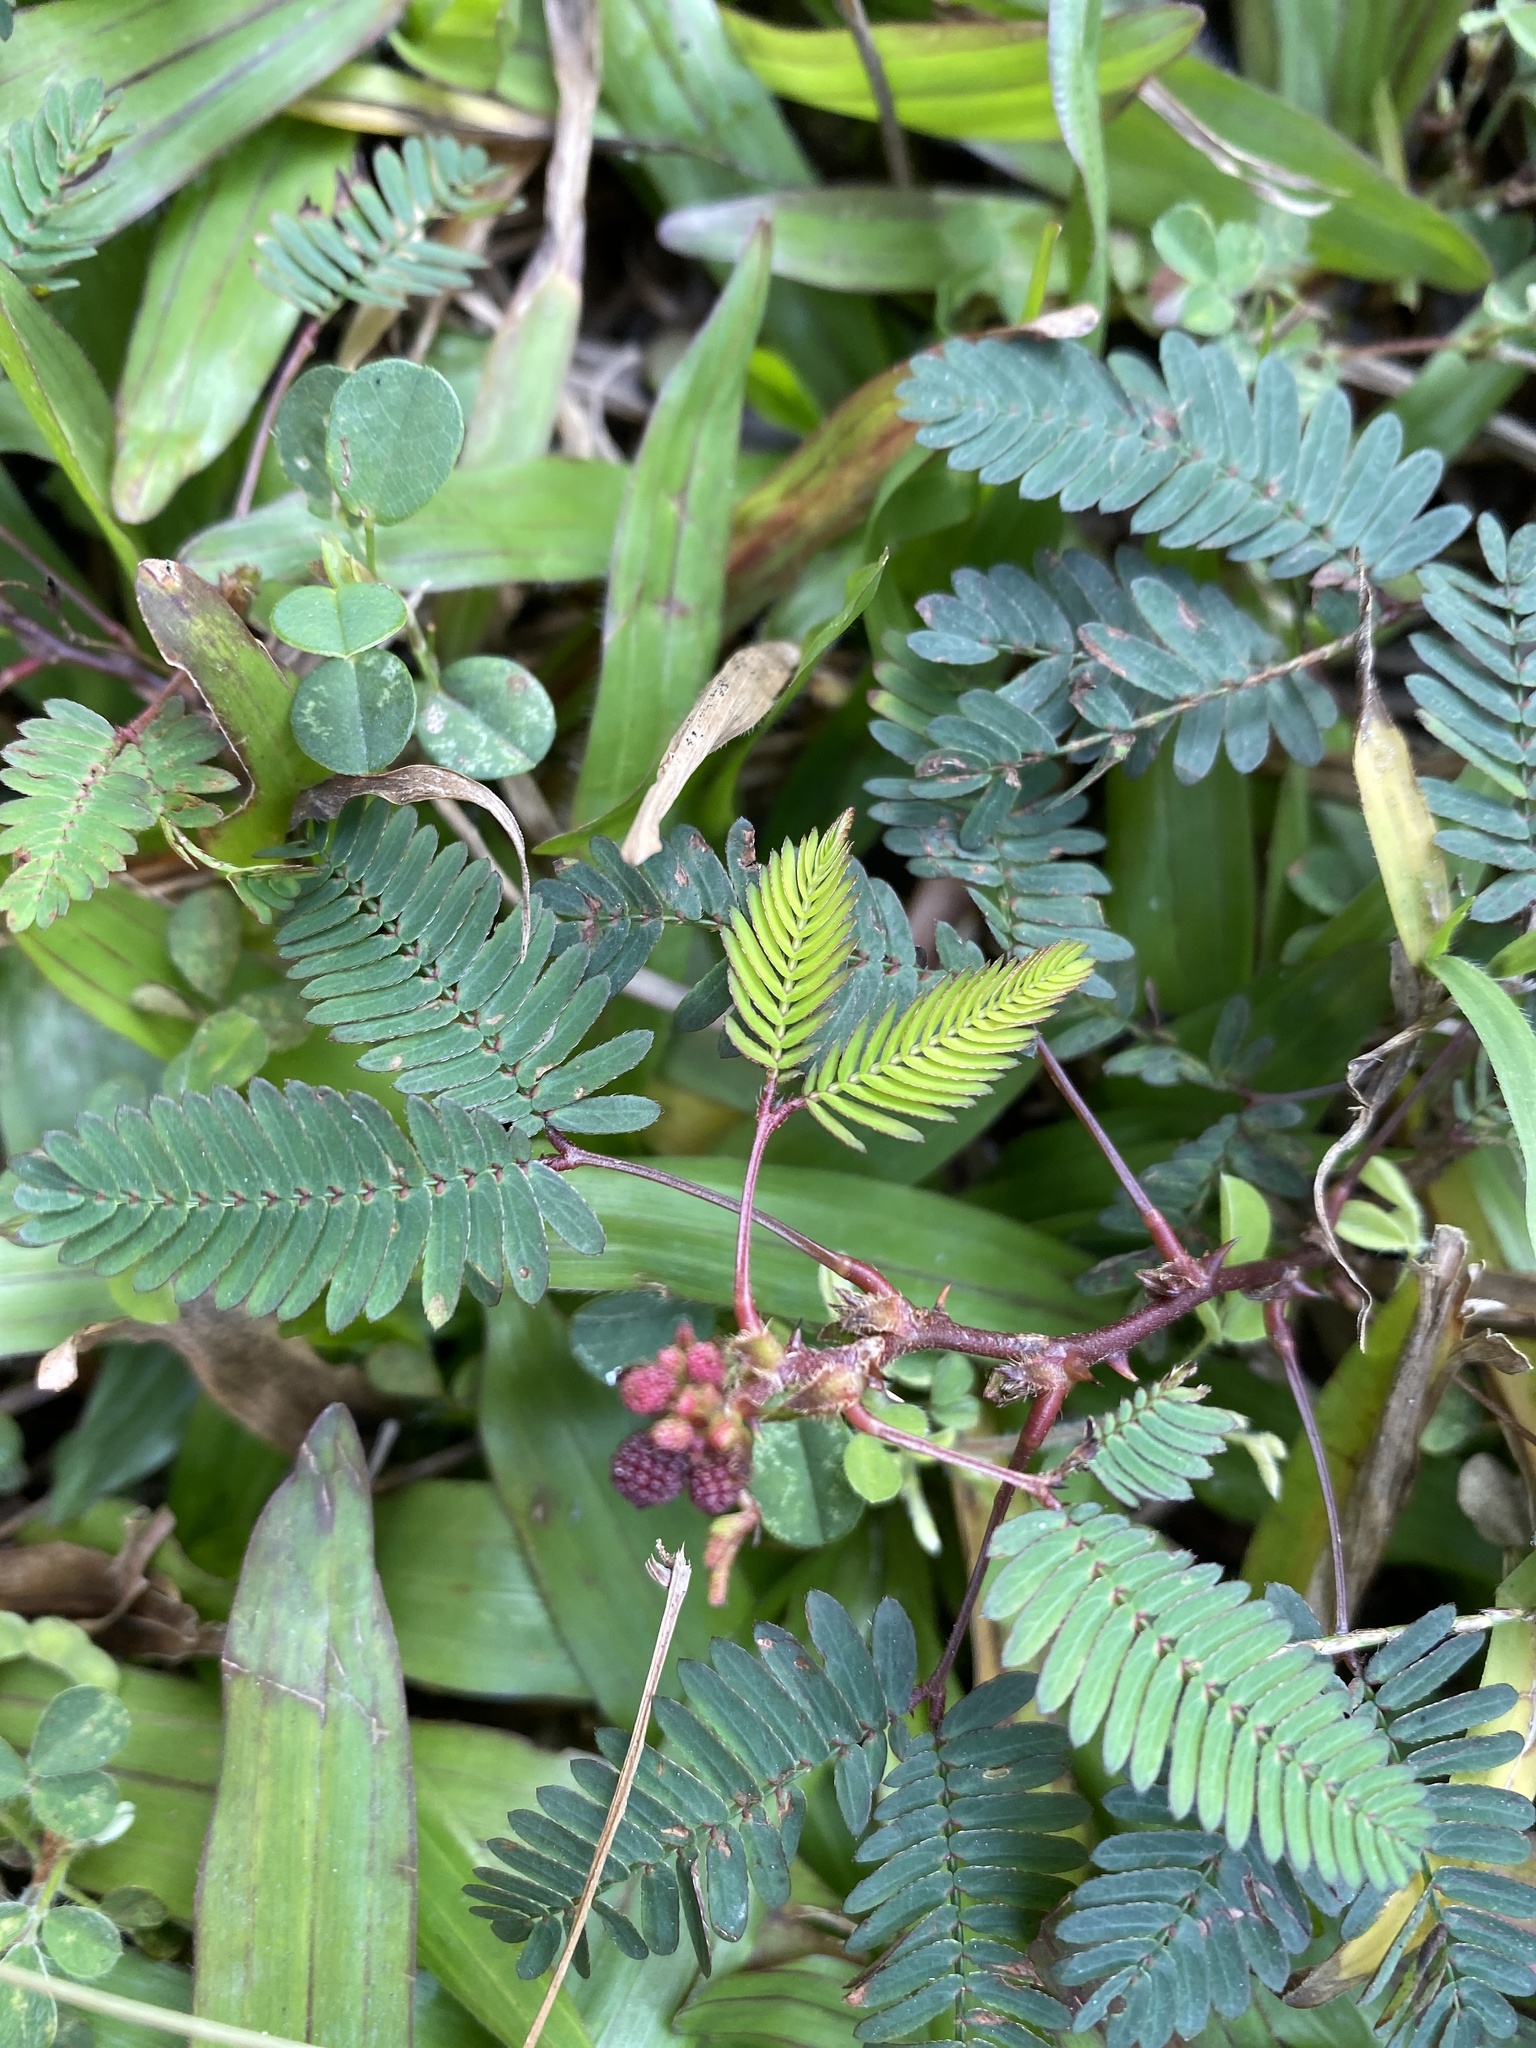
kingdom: Plantae
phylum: Tracheophyta
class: Magnoliopsida
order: Fabales
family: Fabaceae
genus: Mimosa
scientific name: Mimosa pudica
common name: Sensitive plant
